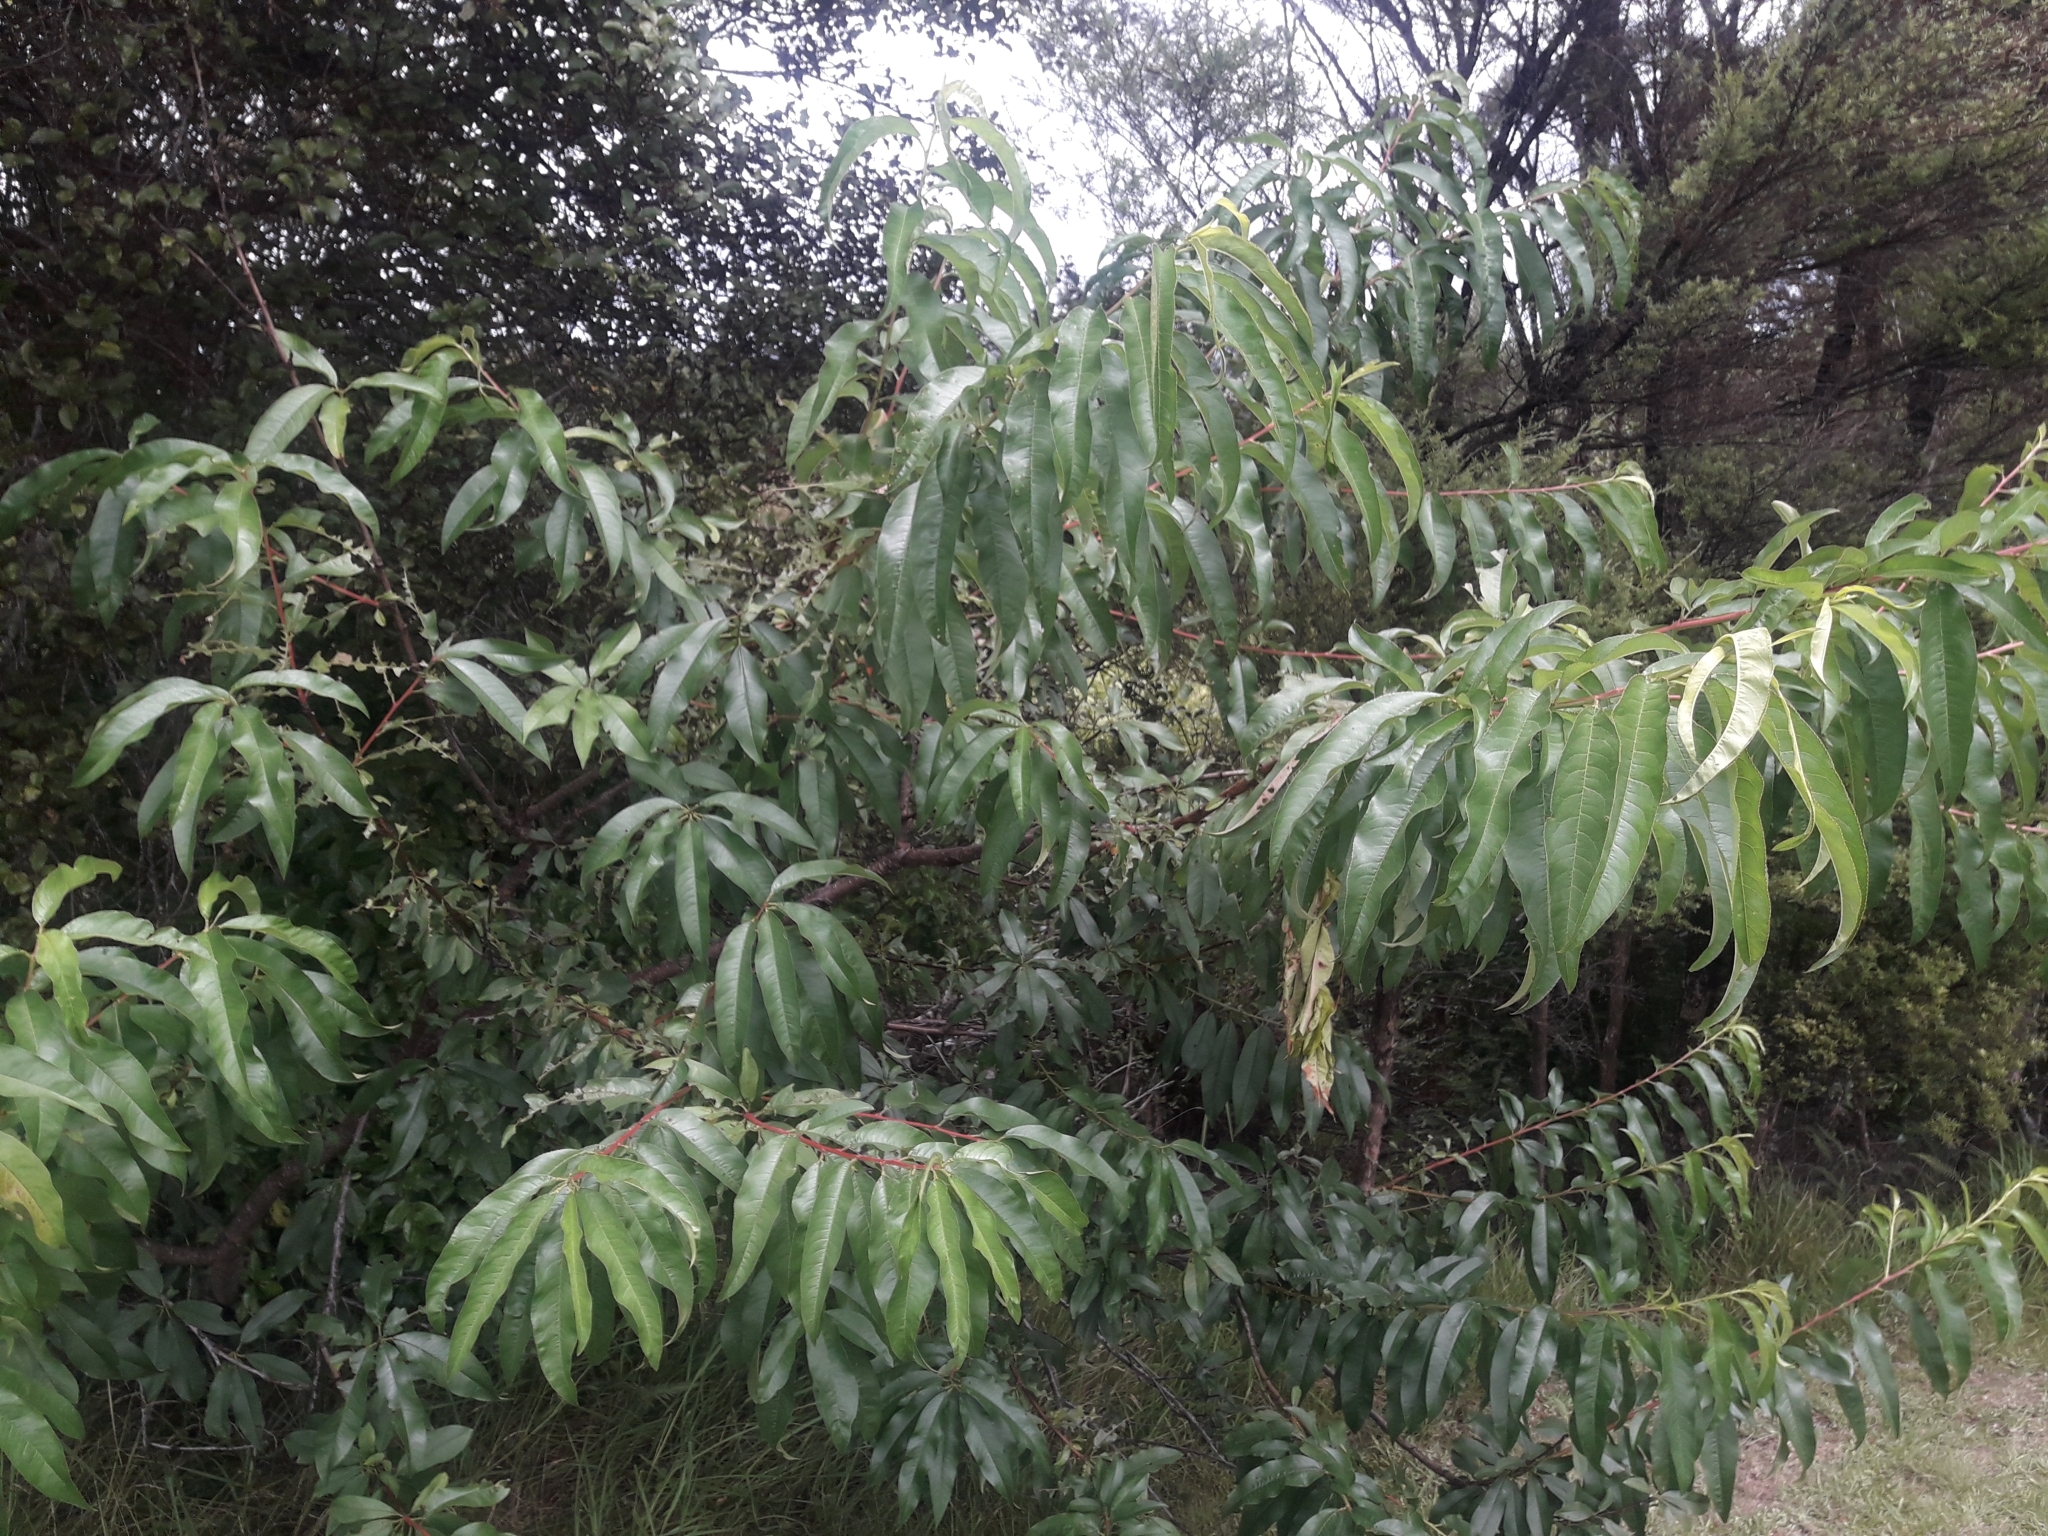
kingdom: Plantae
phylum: Tracheophyta
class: Magnoliopsida
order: Rosales
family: Rosaceae
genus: Prunus
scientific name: Prunus persica
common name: Peach
